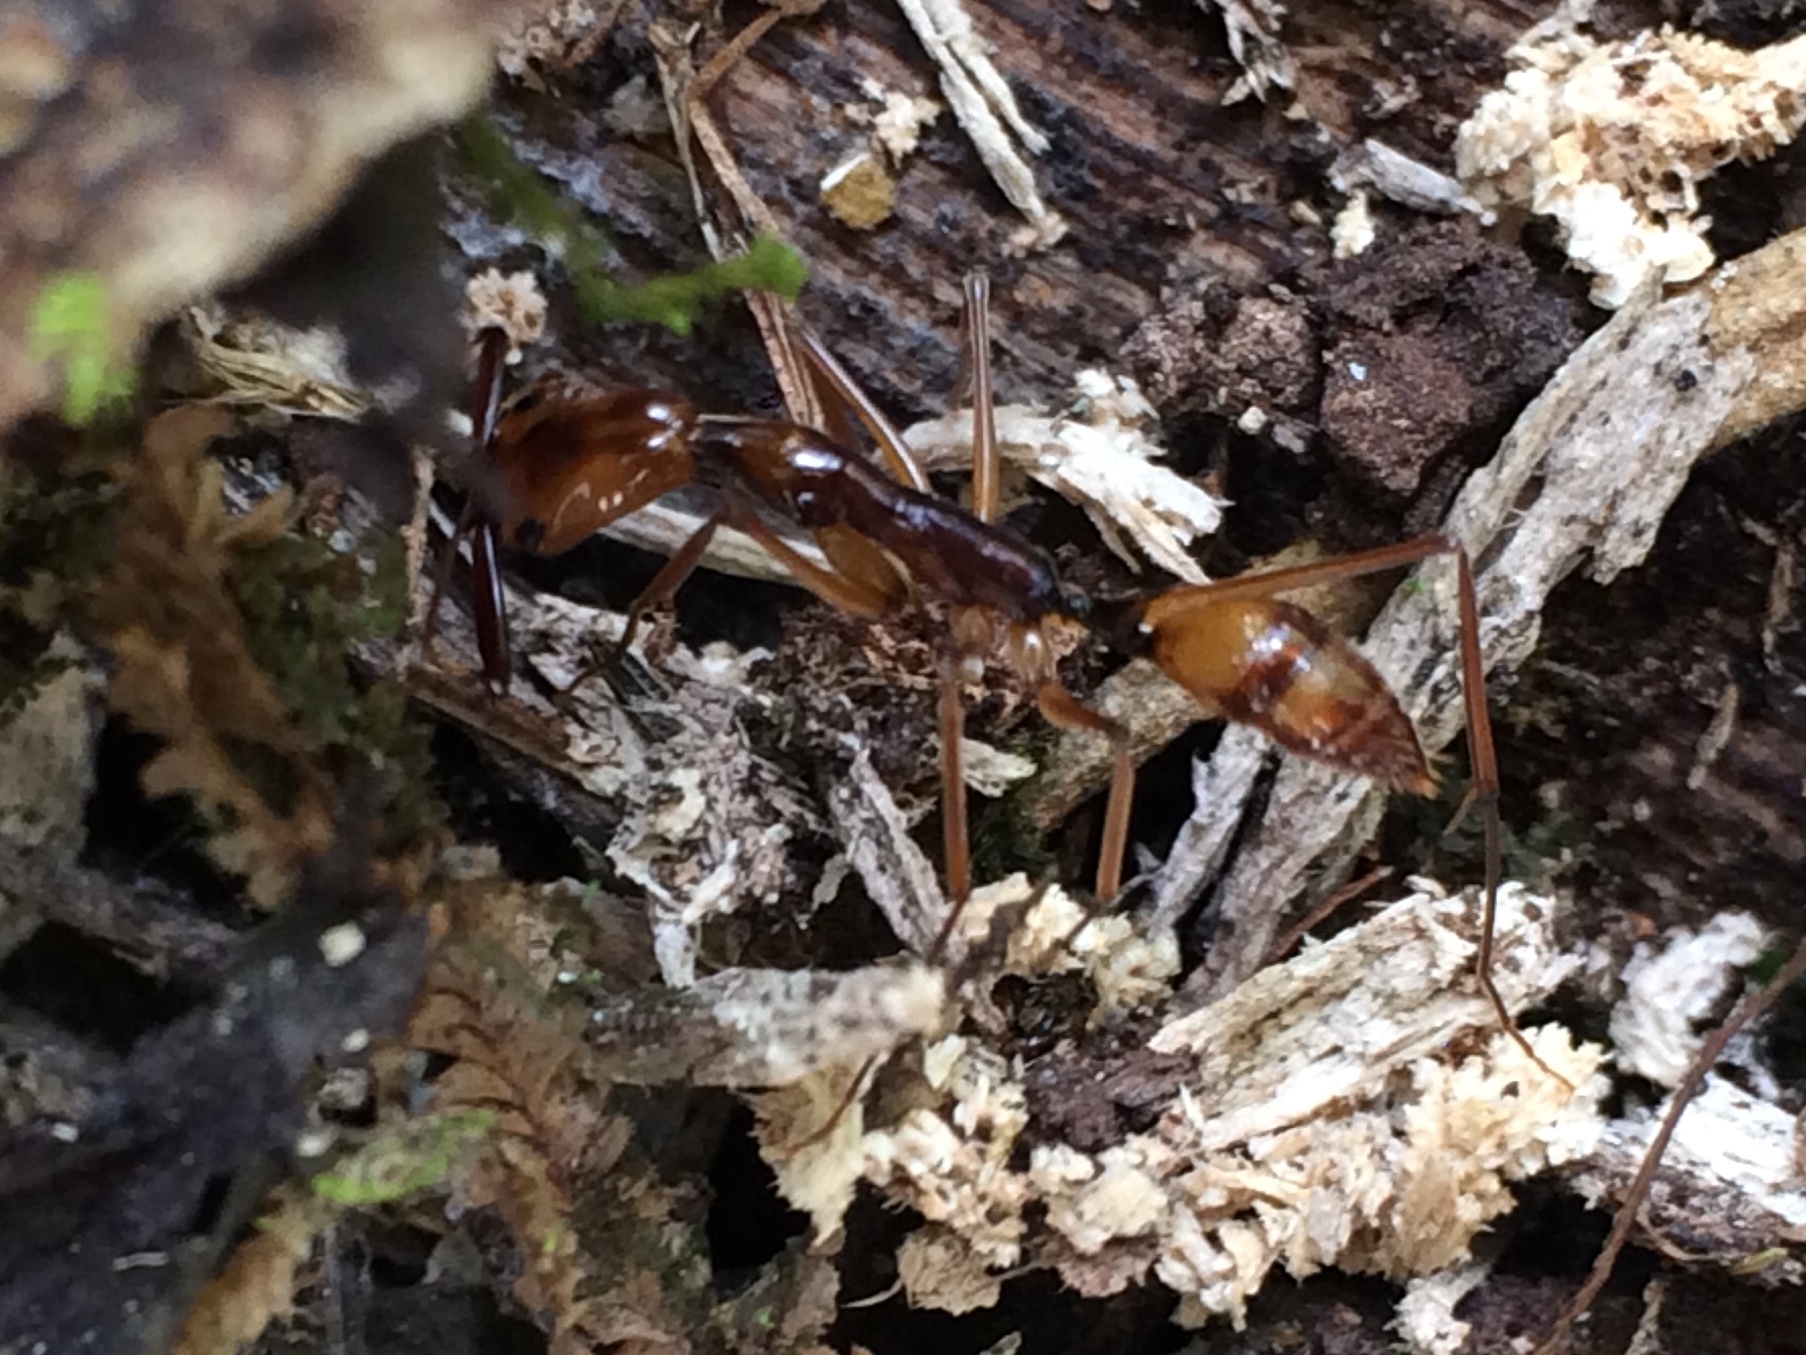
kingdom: Animalia
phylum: Arthropoda
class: Insecta
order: Hymenoptera
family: Formicidae
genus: Odontomachus
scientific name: Odontomachus hastatus
